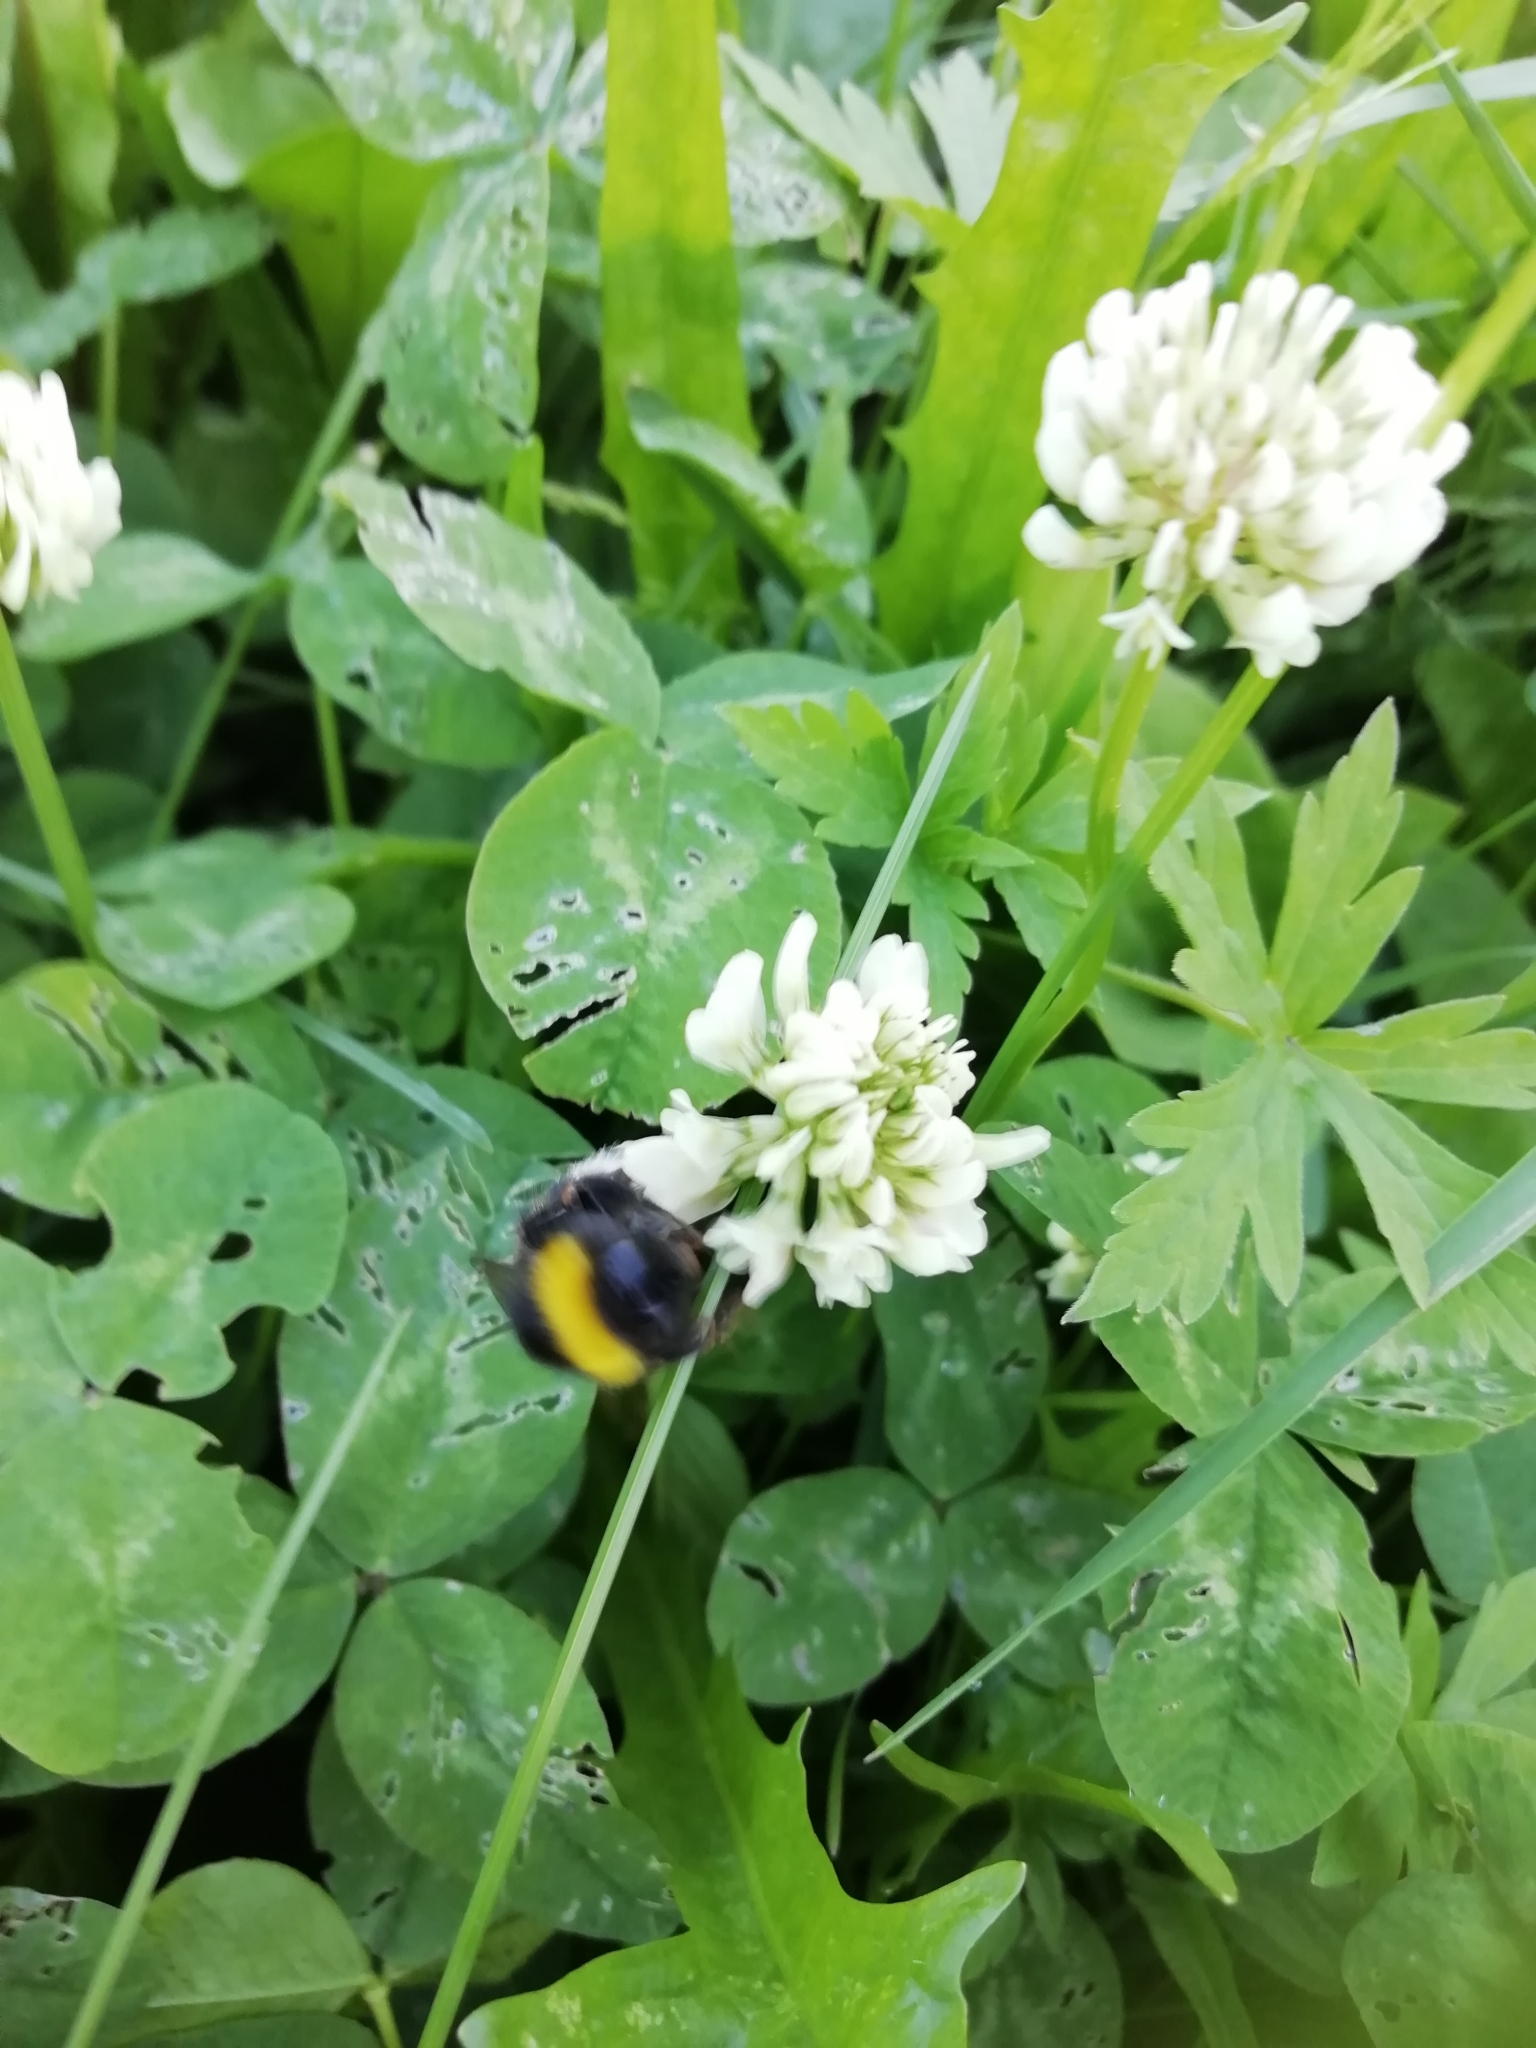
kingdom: Animalia
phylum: Arthropoda
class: Insecta
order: Hymenoptera
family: Apidae
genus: Bombus
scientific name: Bombus
